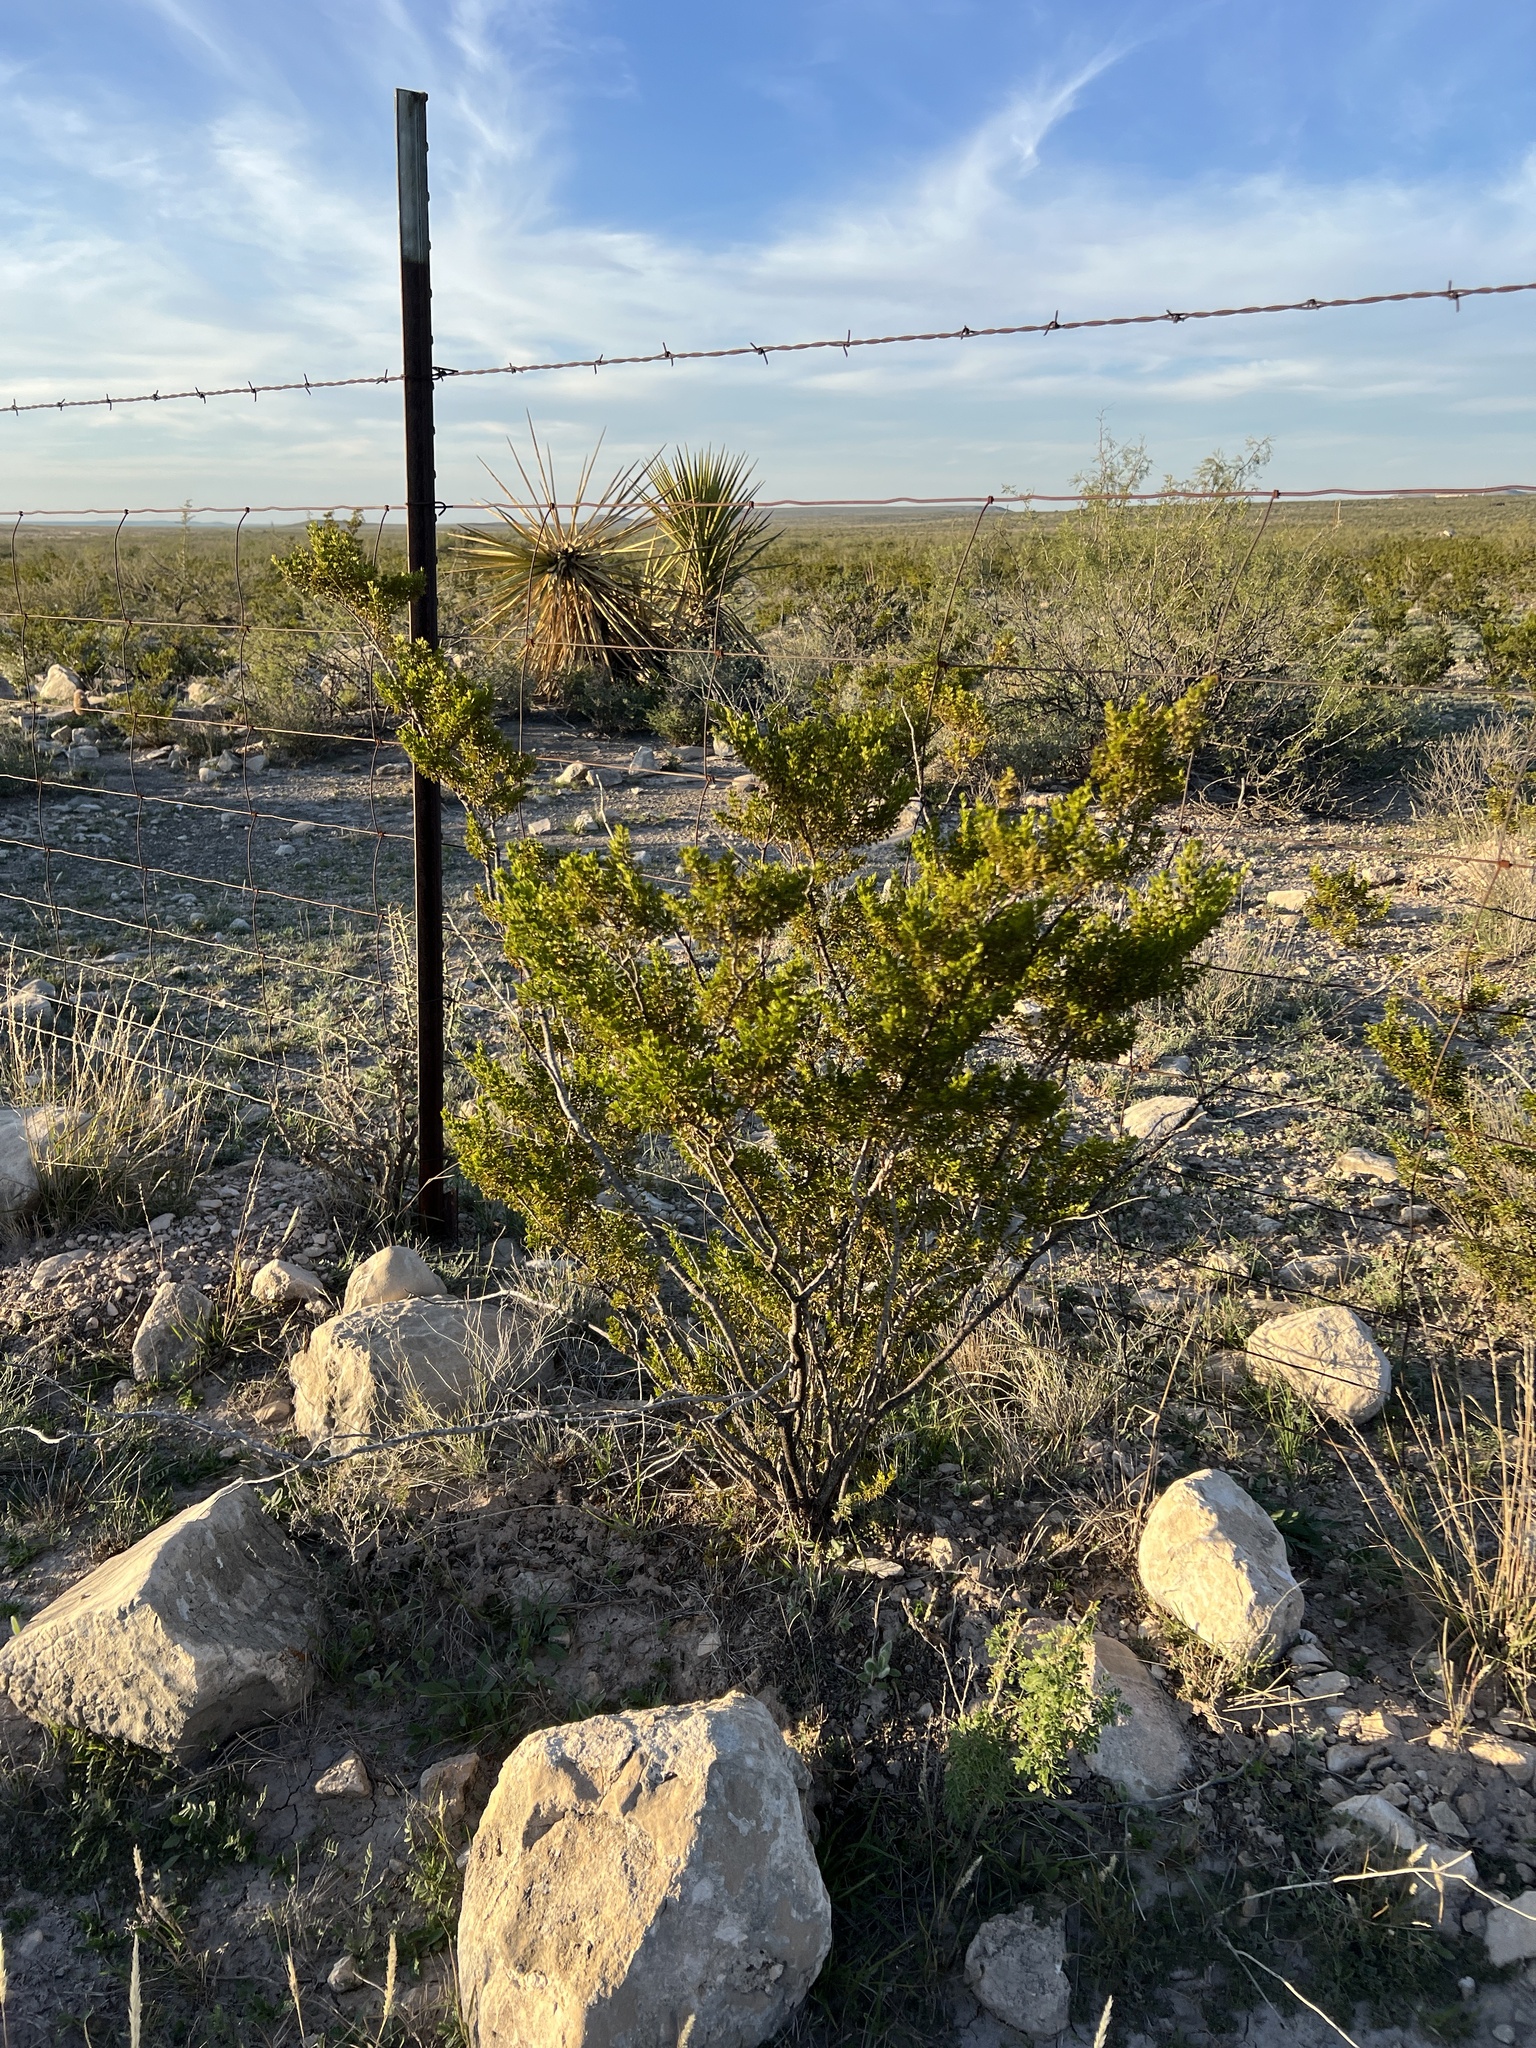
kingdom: Plantae
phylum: Tracheophyta
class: Magnoliopsida
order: Zygophyllales
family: Zygophyllaceae
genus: Larrea
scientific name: Larrea tridentata
